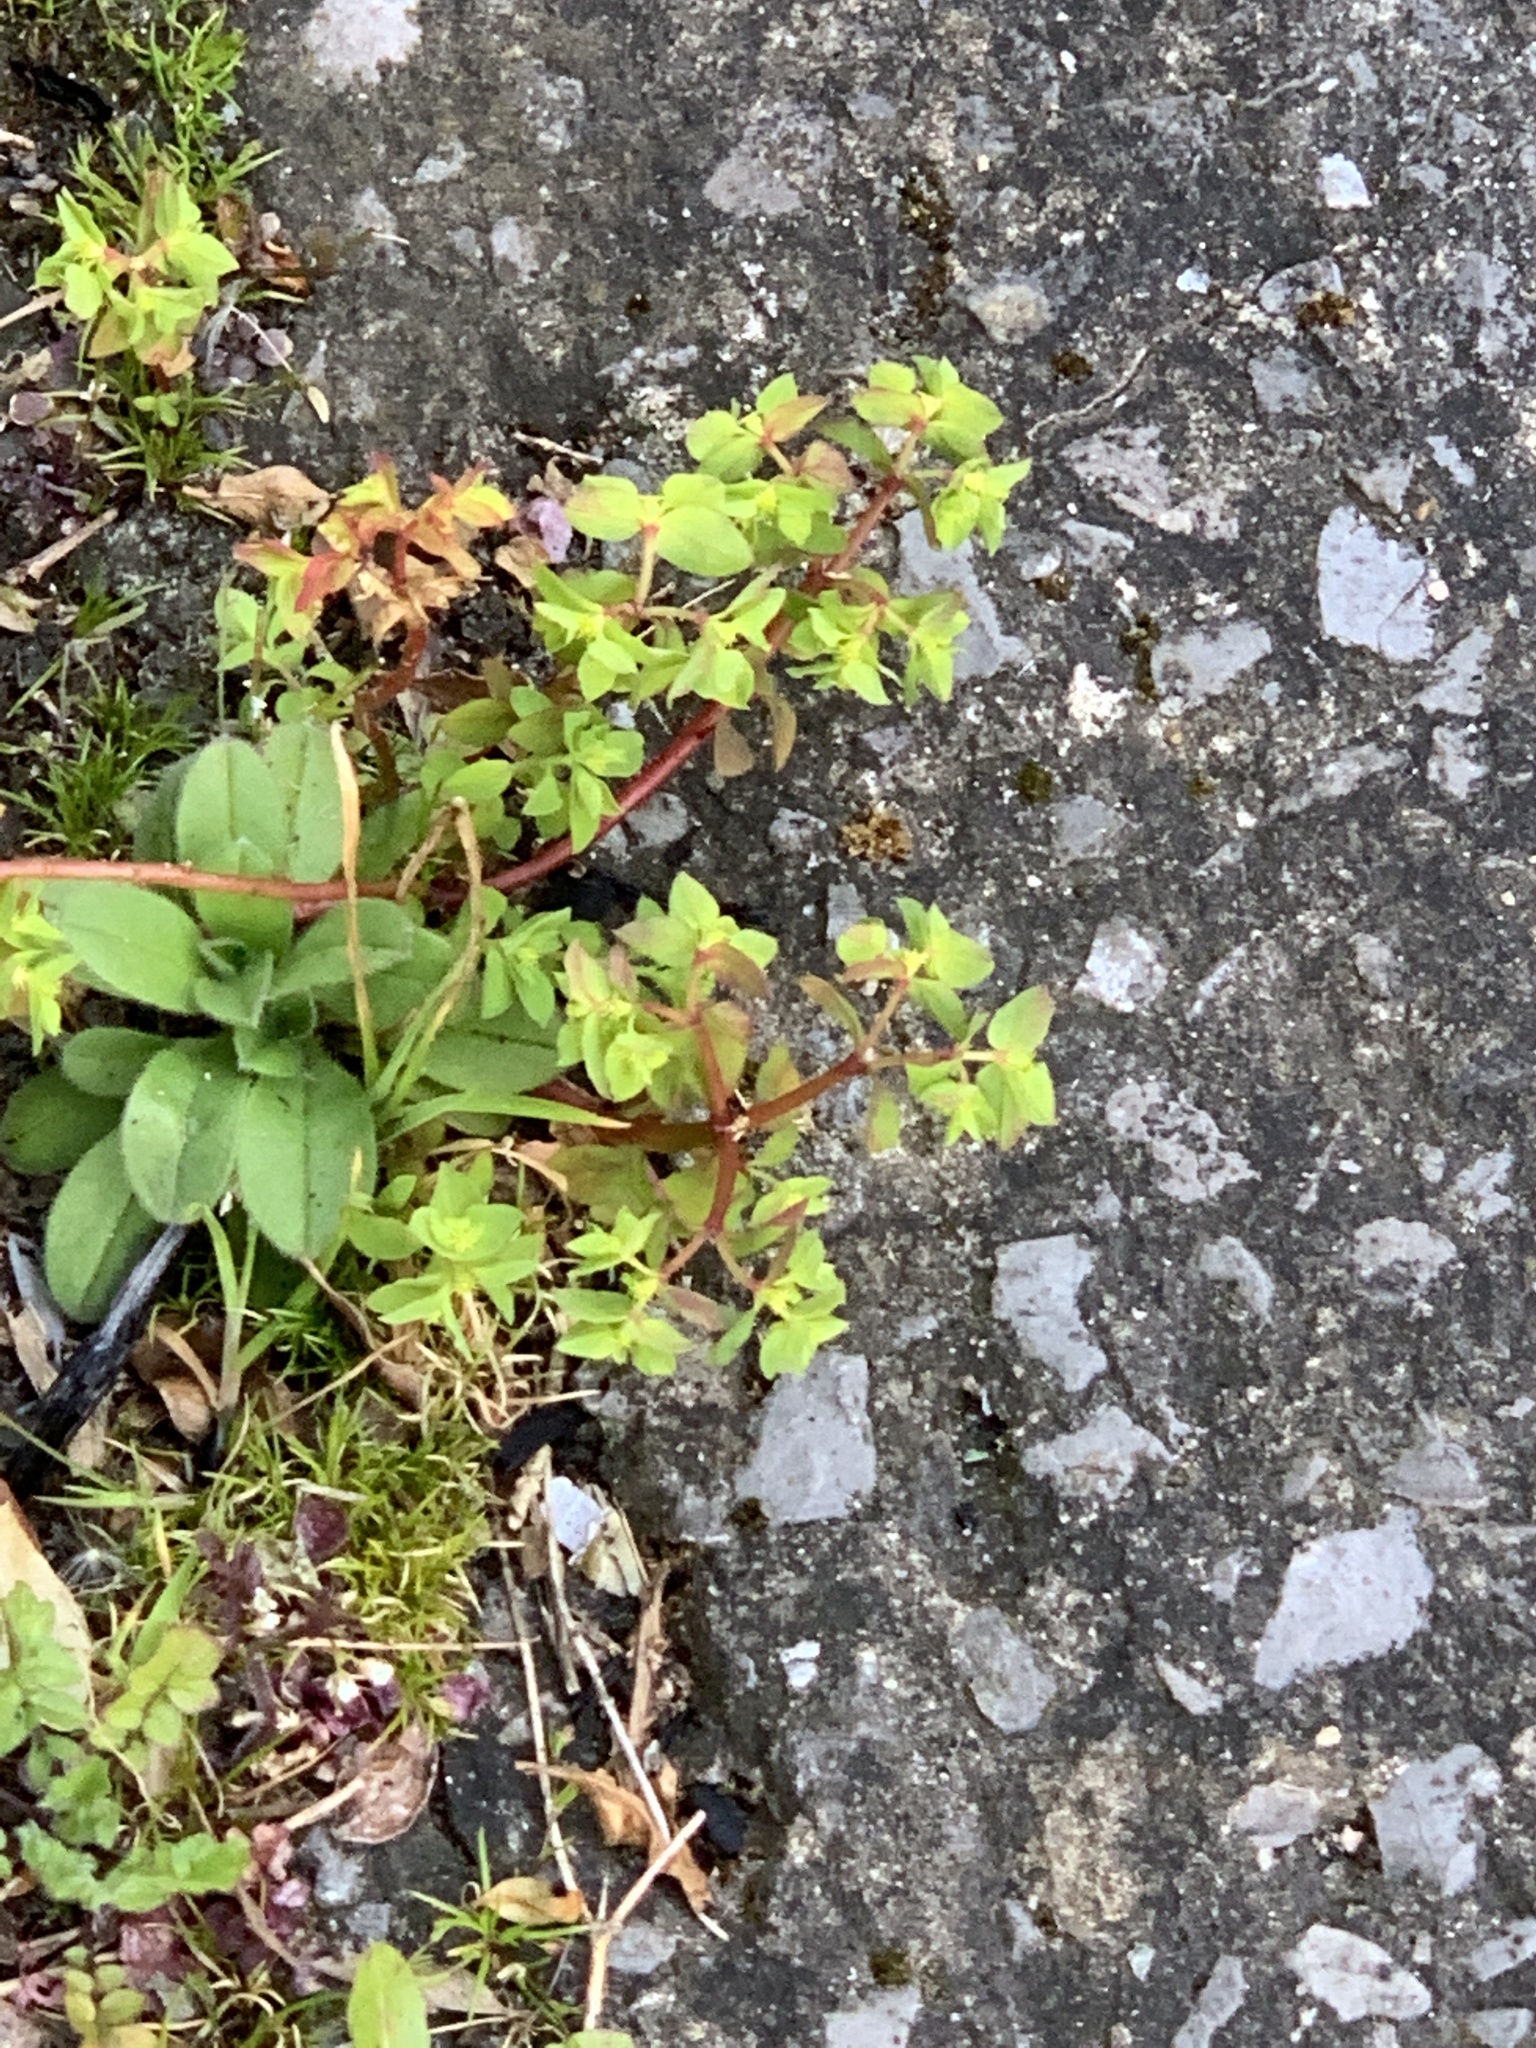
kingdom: Plantae
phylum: Tracheophyta
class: Magnoliopsida
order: Malpighiales
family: Euphorbiaceae
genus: Euphorbia
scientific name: Euphorbia peplus
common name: Petty spurge
